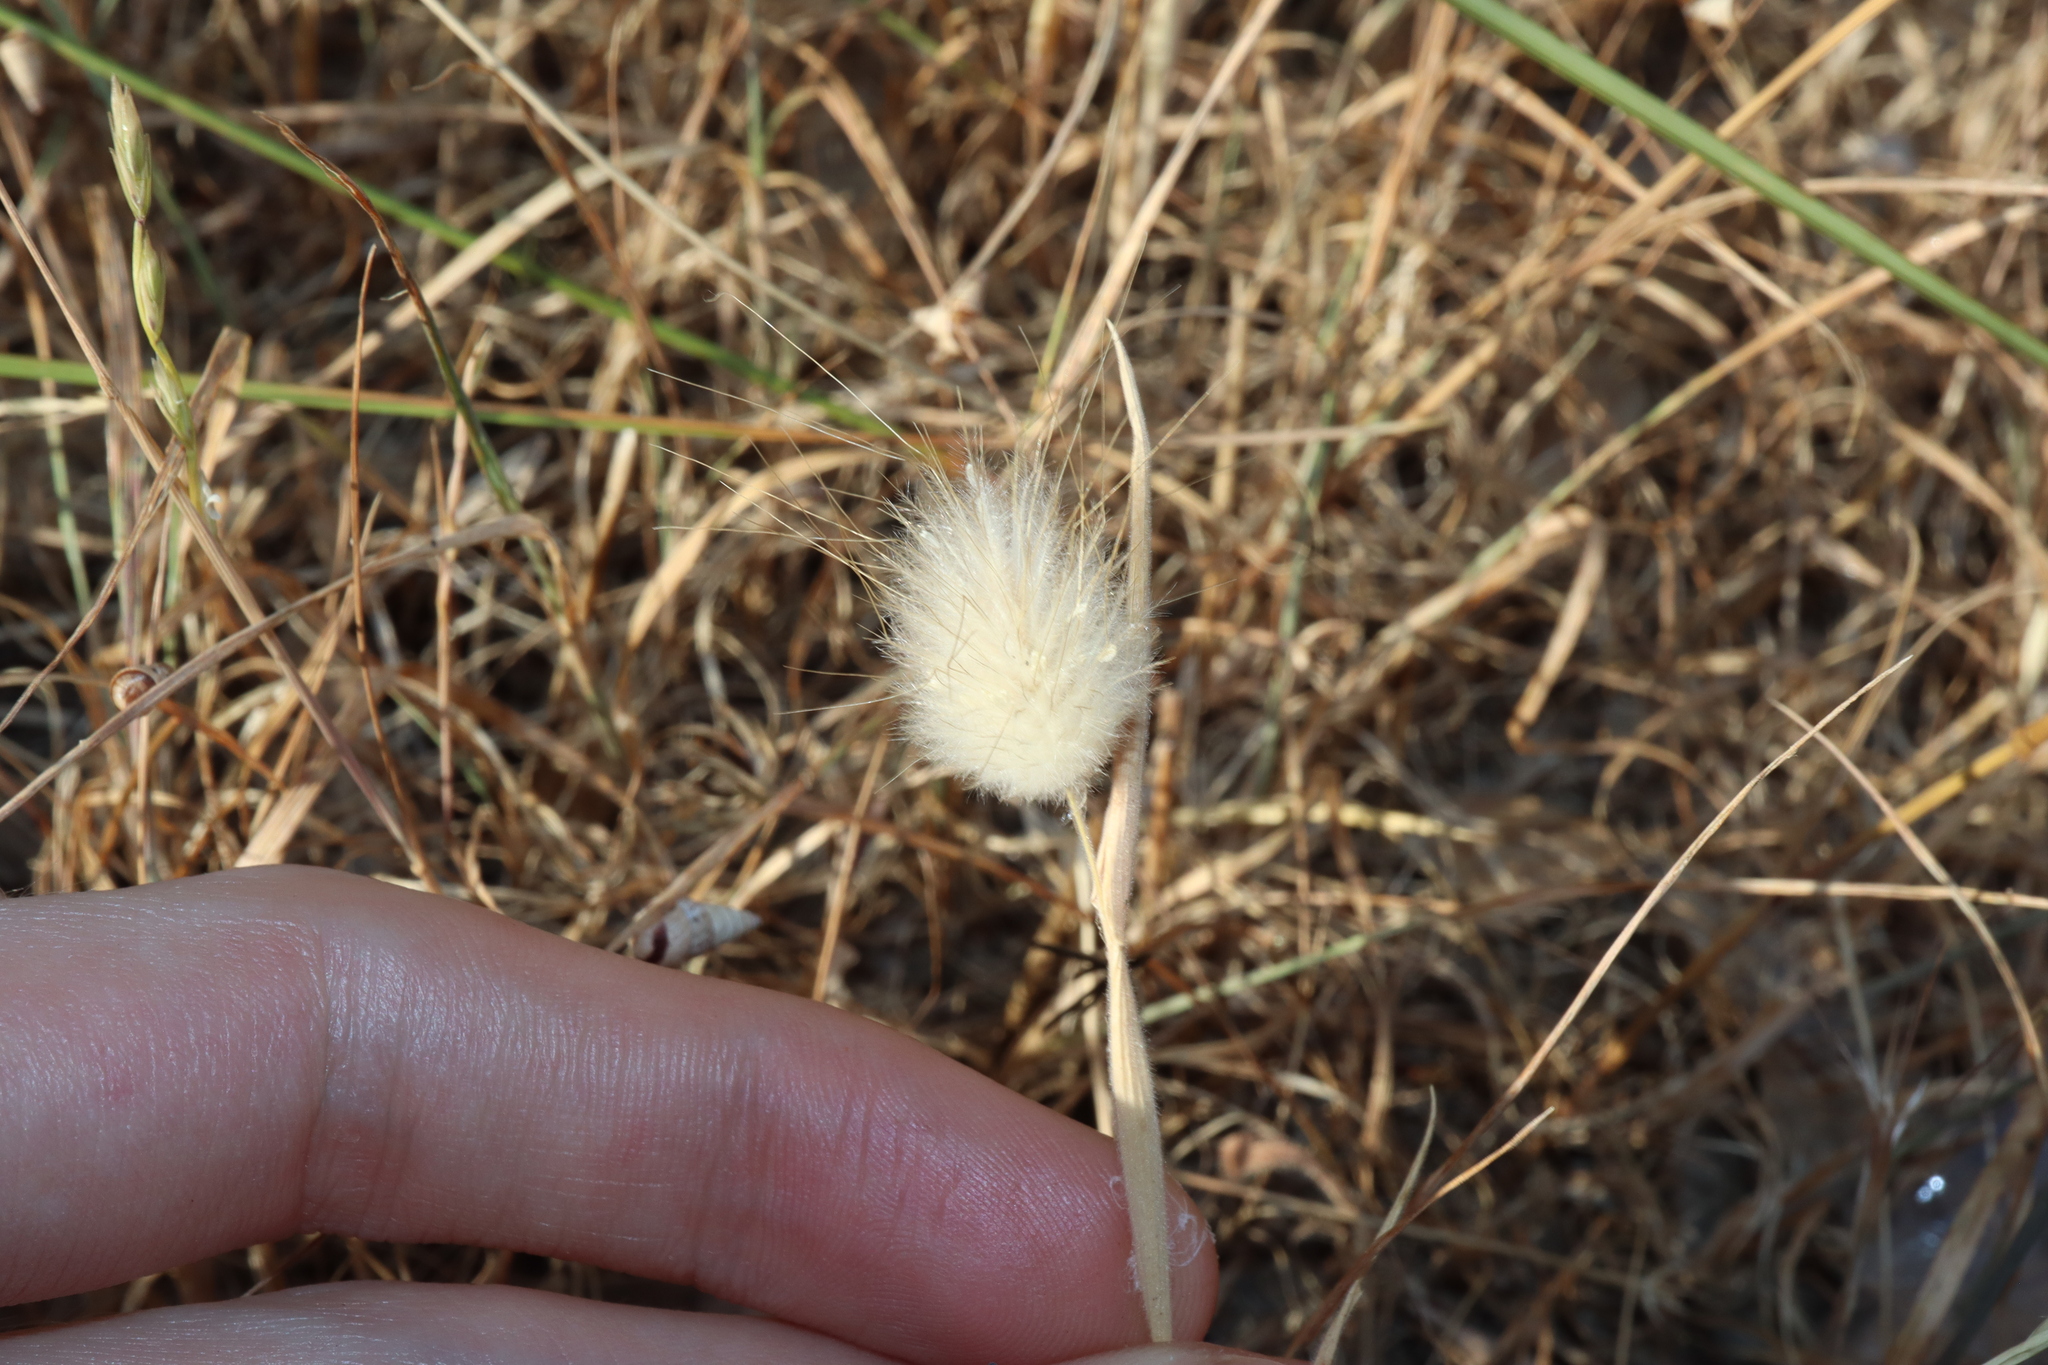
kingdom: Plantae
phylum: Tracheophyta
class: Liliopsida
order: Poales
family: Poaceae
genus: Lagurus
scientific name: Lagurus ovatus
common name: Hare's-tail
